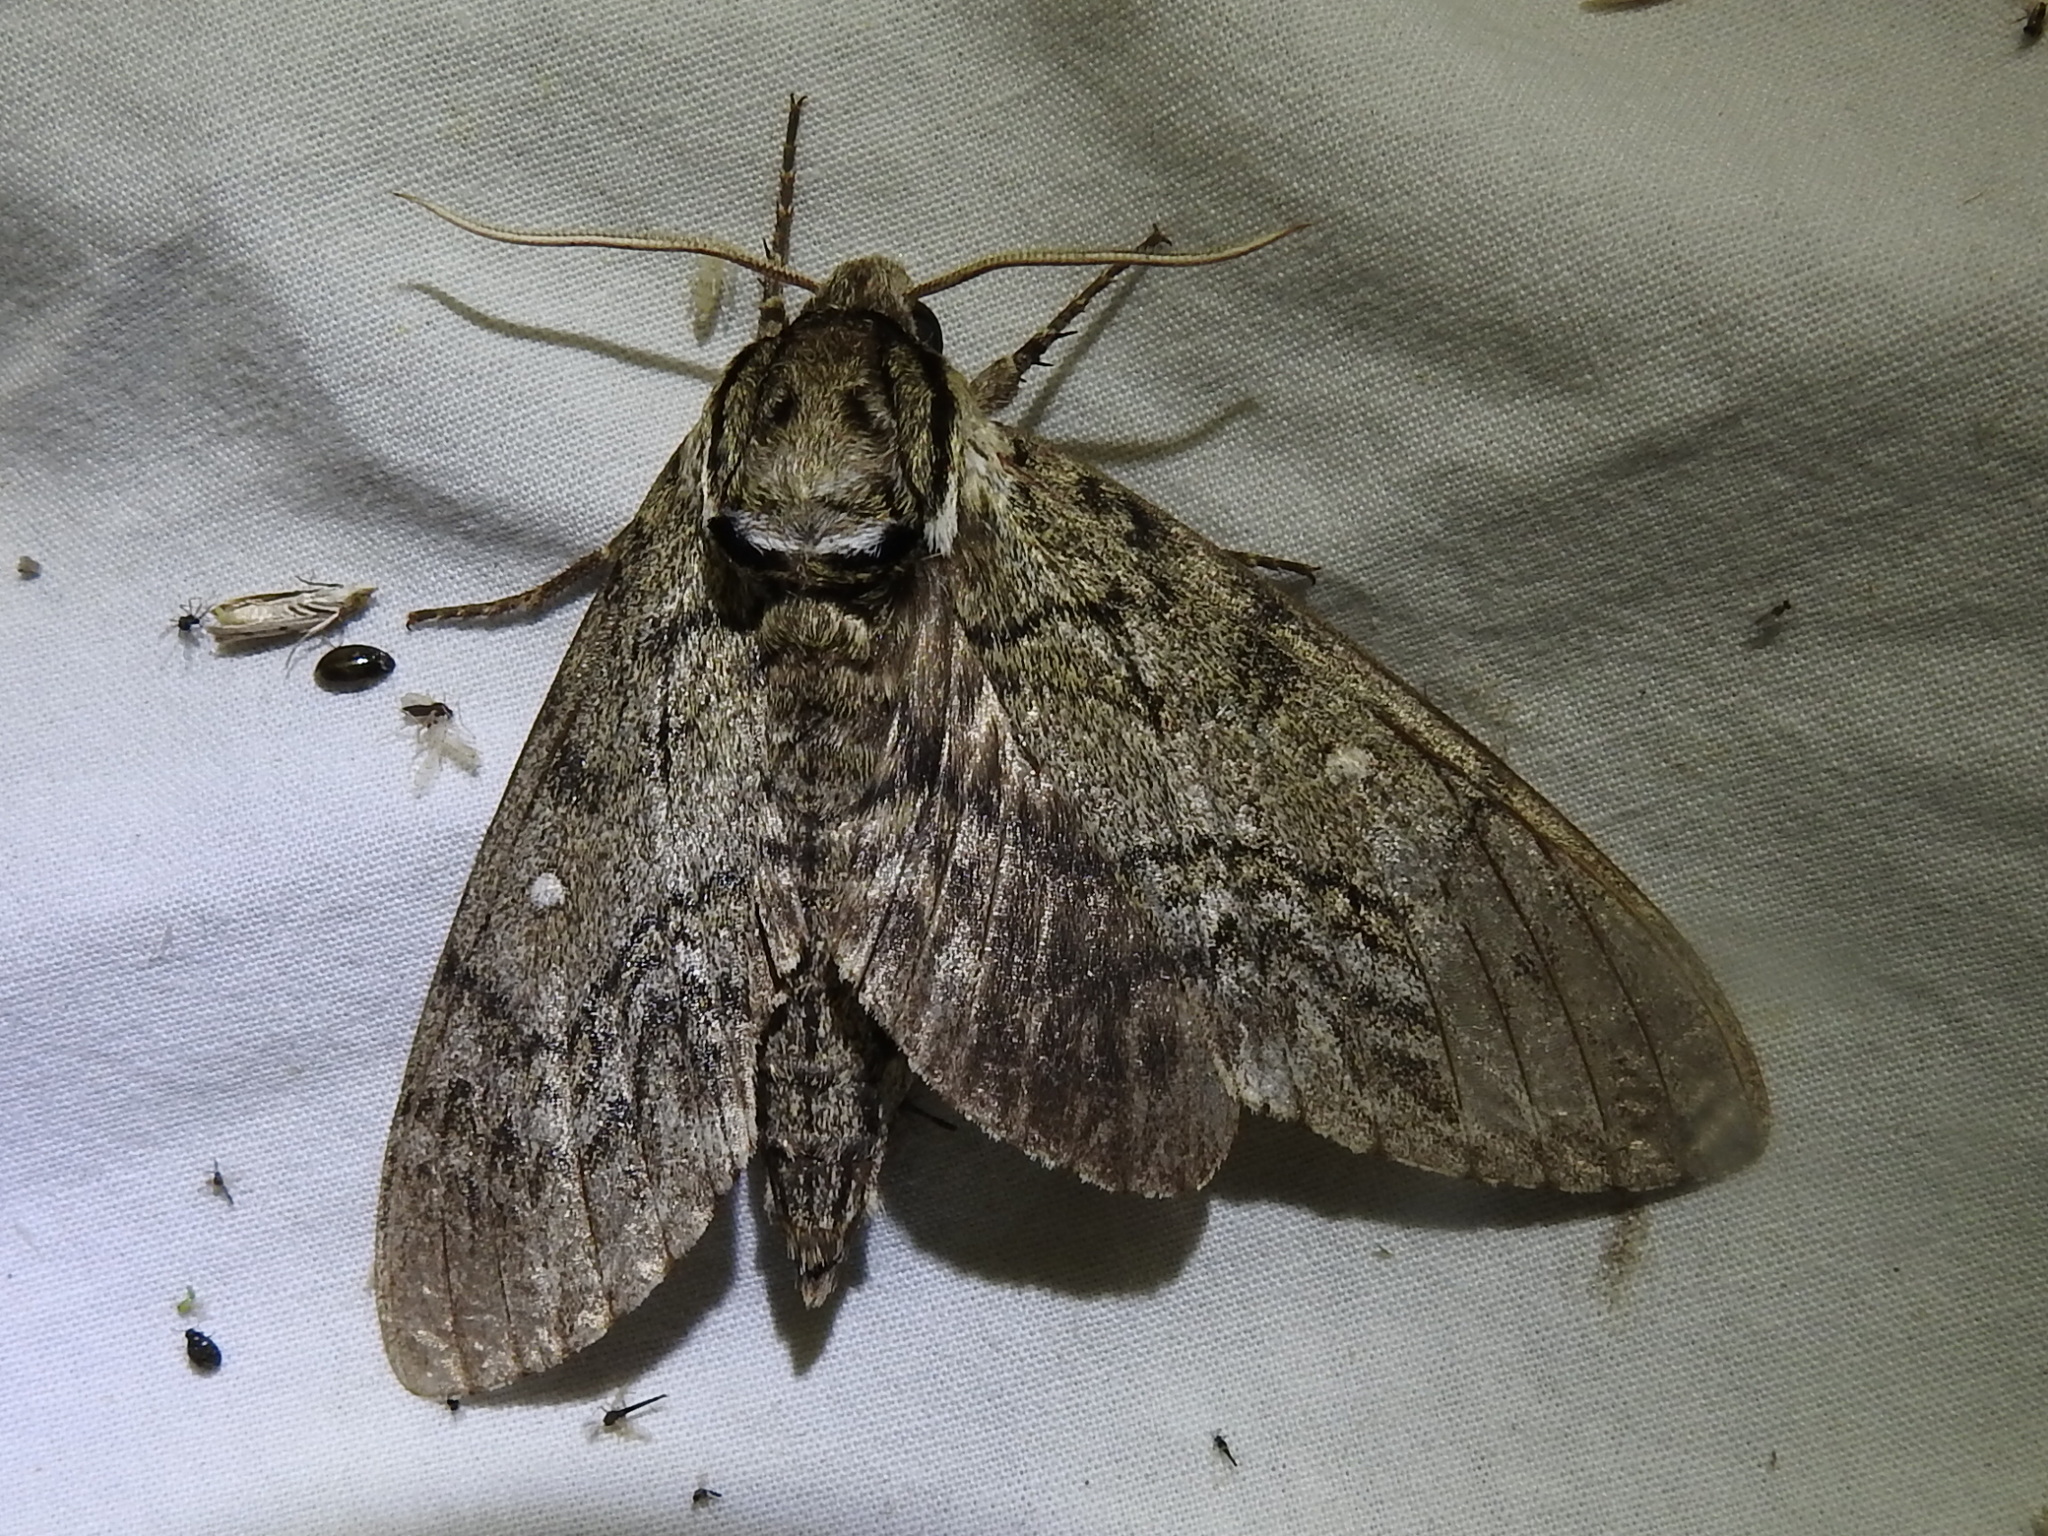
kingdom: Animalia
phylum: Arthropoda
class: Insecta
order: Lepidoptera
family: Sphingidae
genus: Ceratomia
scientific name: Ceratomia undulosa
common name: Waved sphinx
